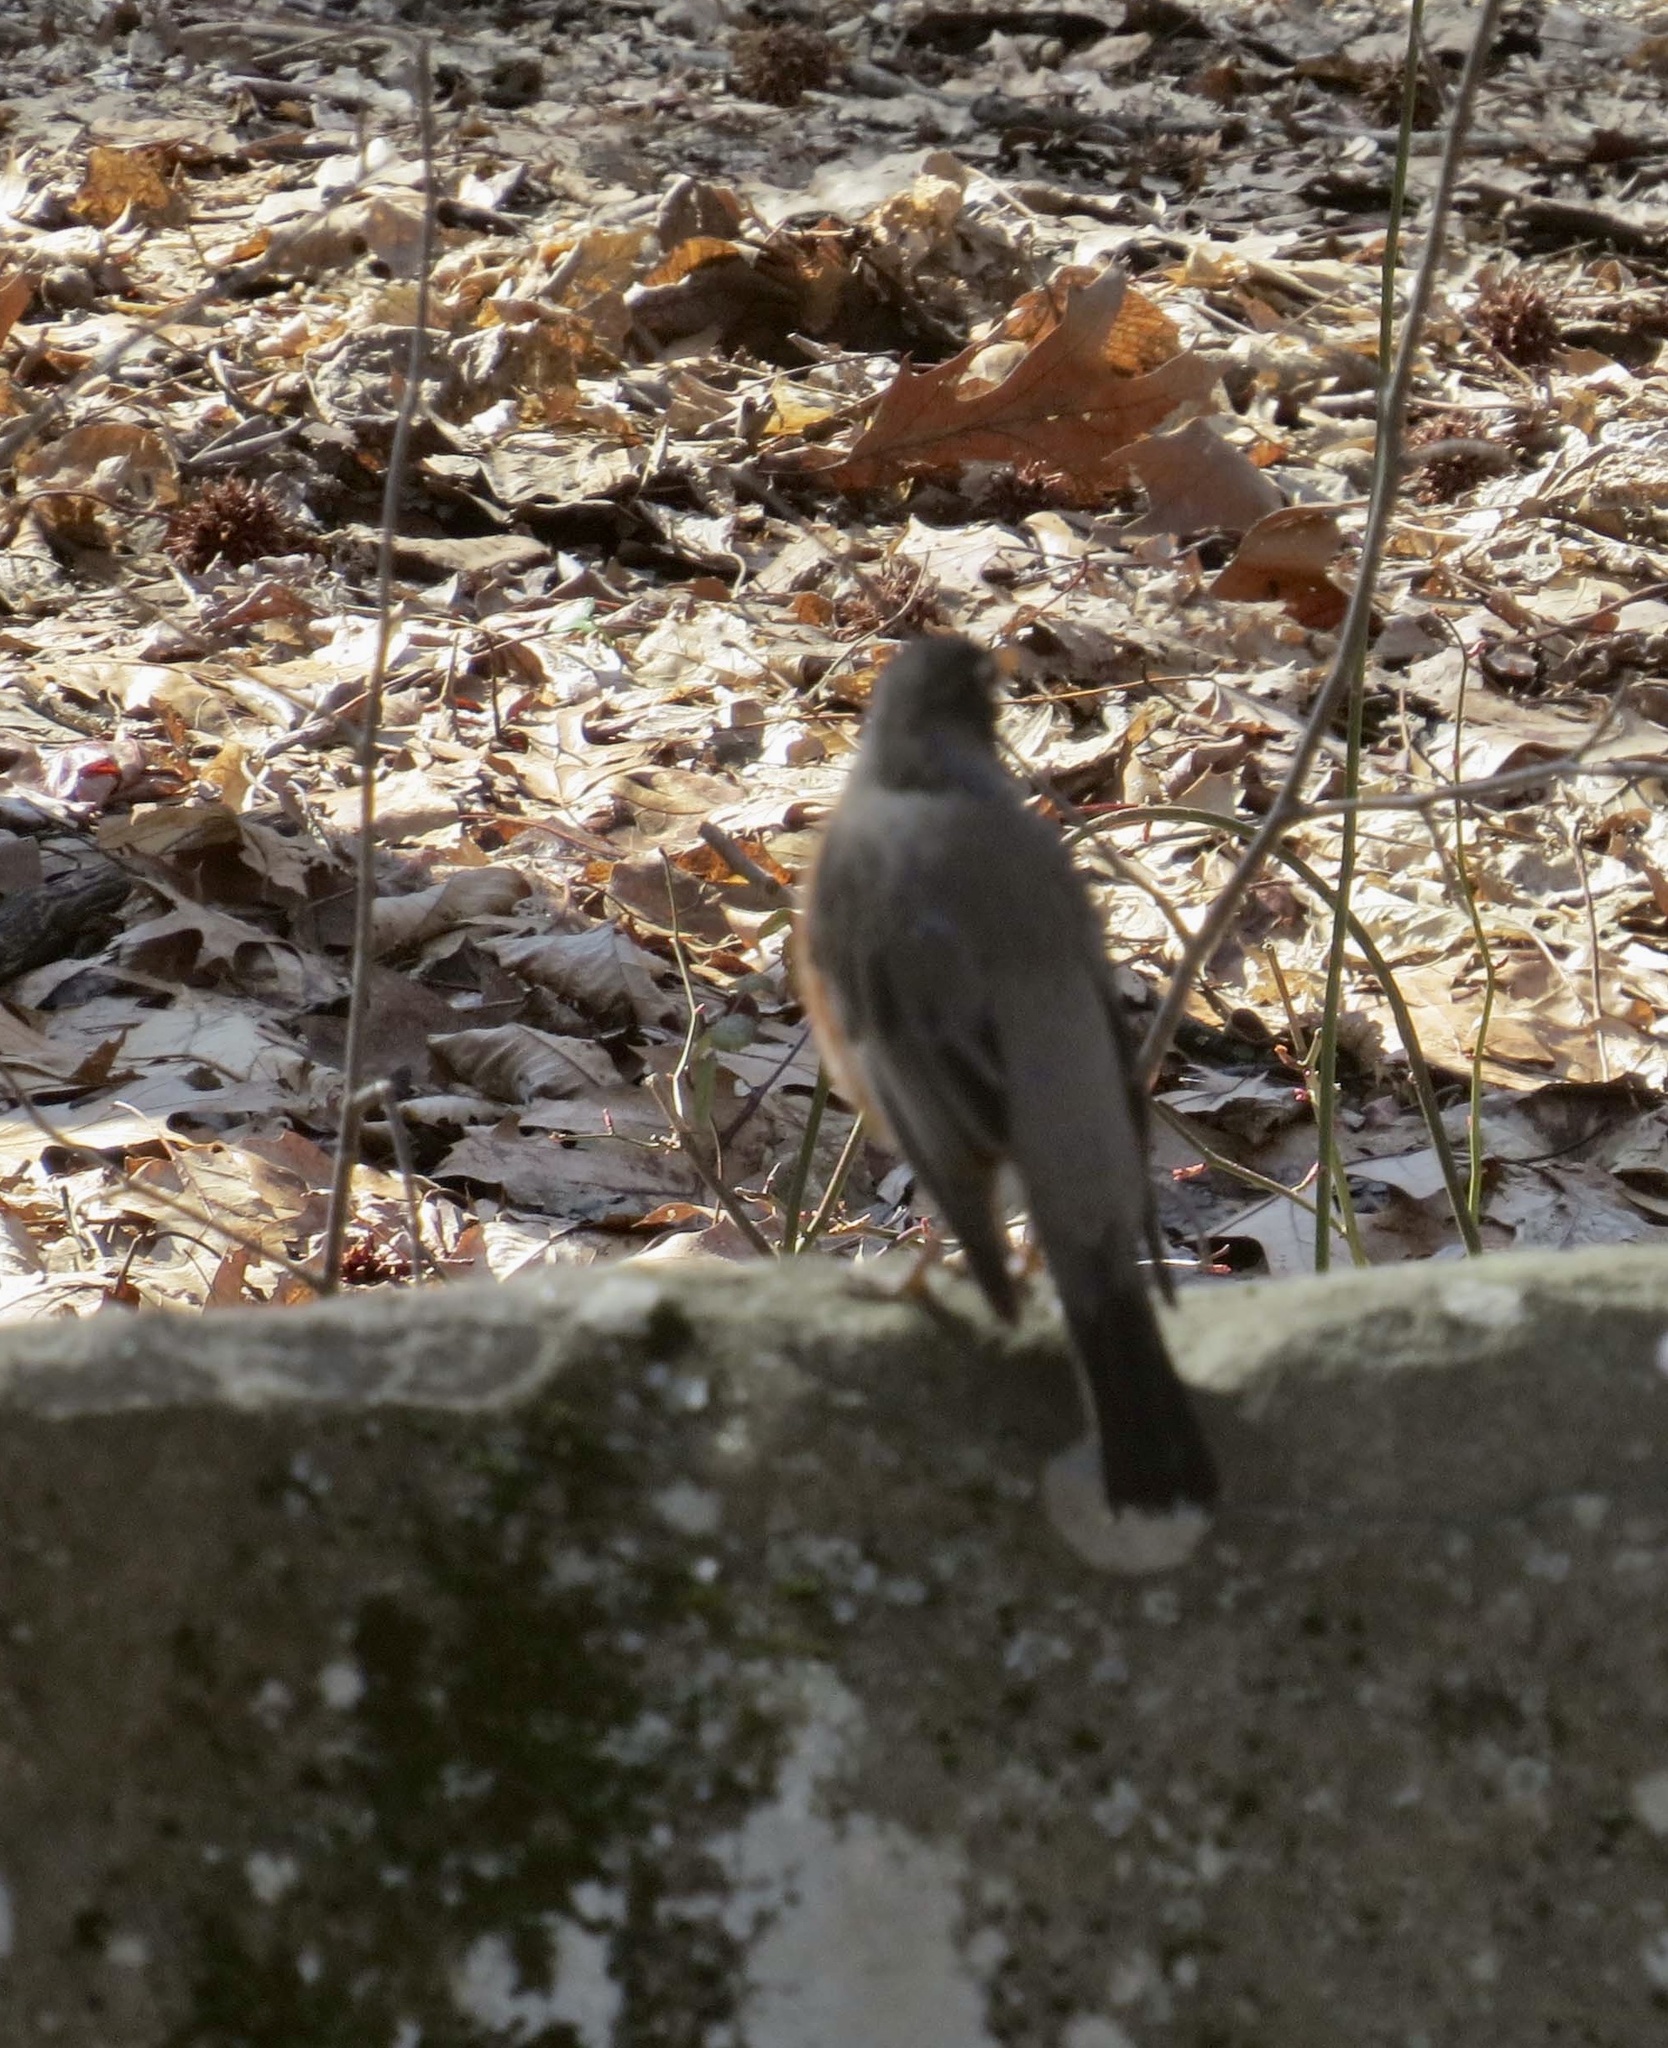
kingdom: Animalia
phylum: Chordata
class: Aves
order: Passeriformes
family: Turdidae
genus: Turdus
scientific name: Turdus migratorius
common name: American robin
